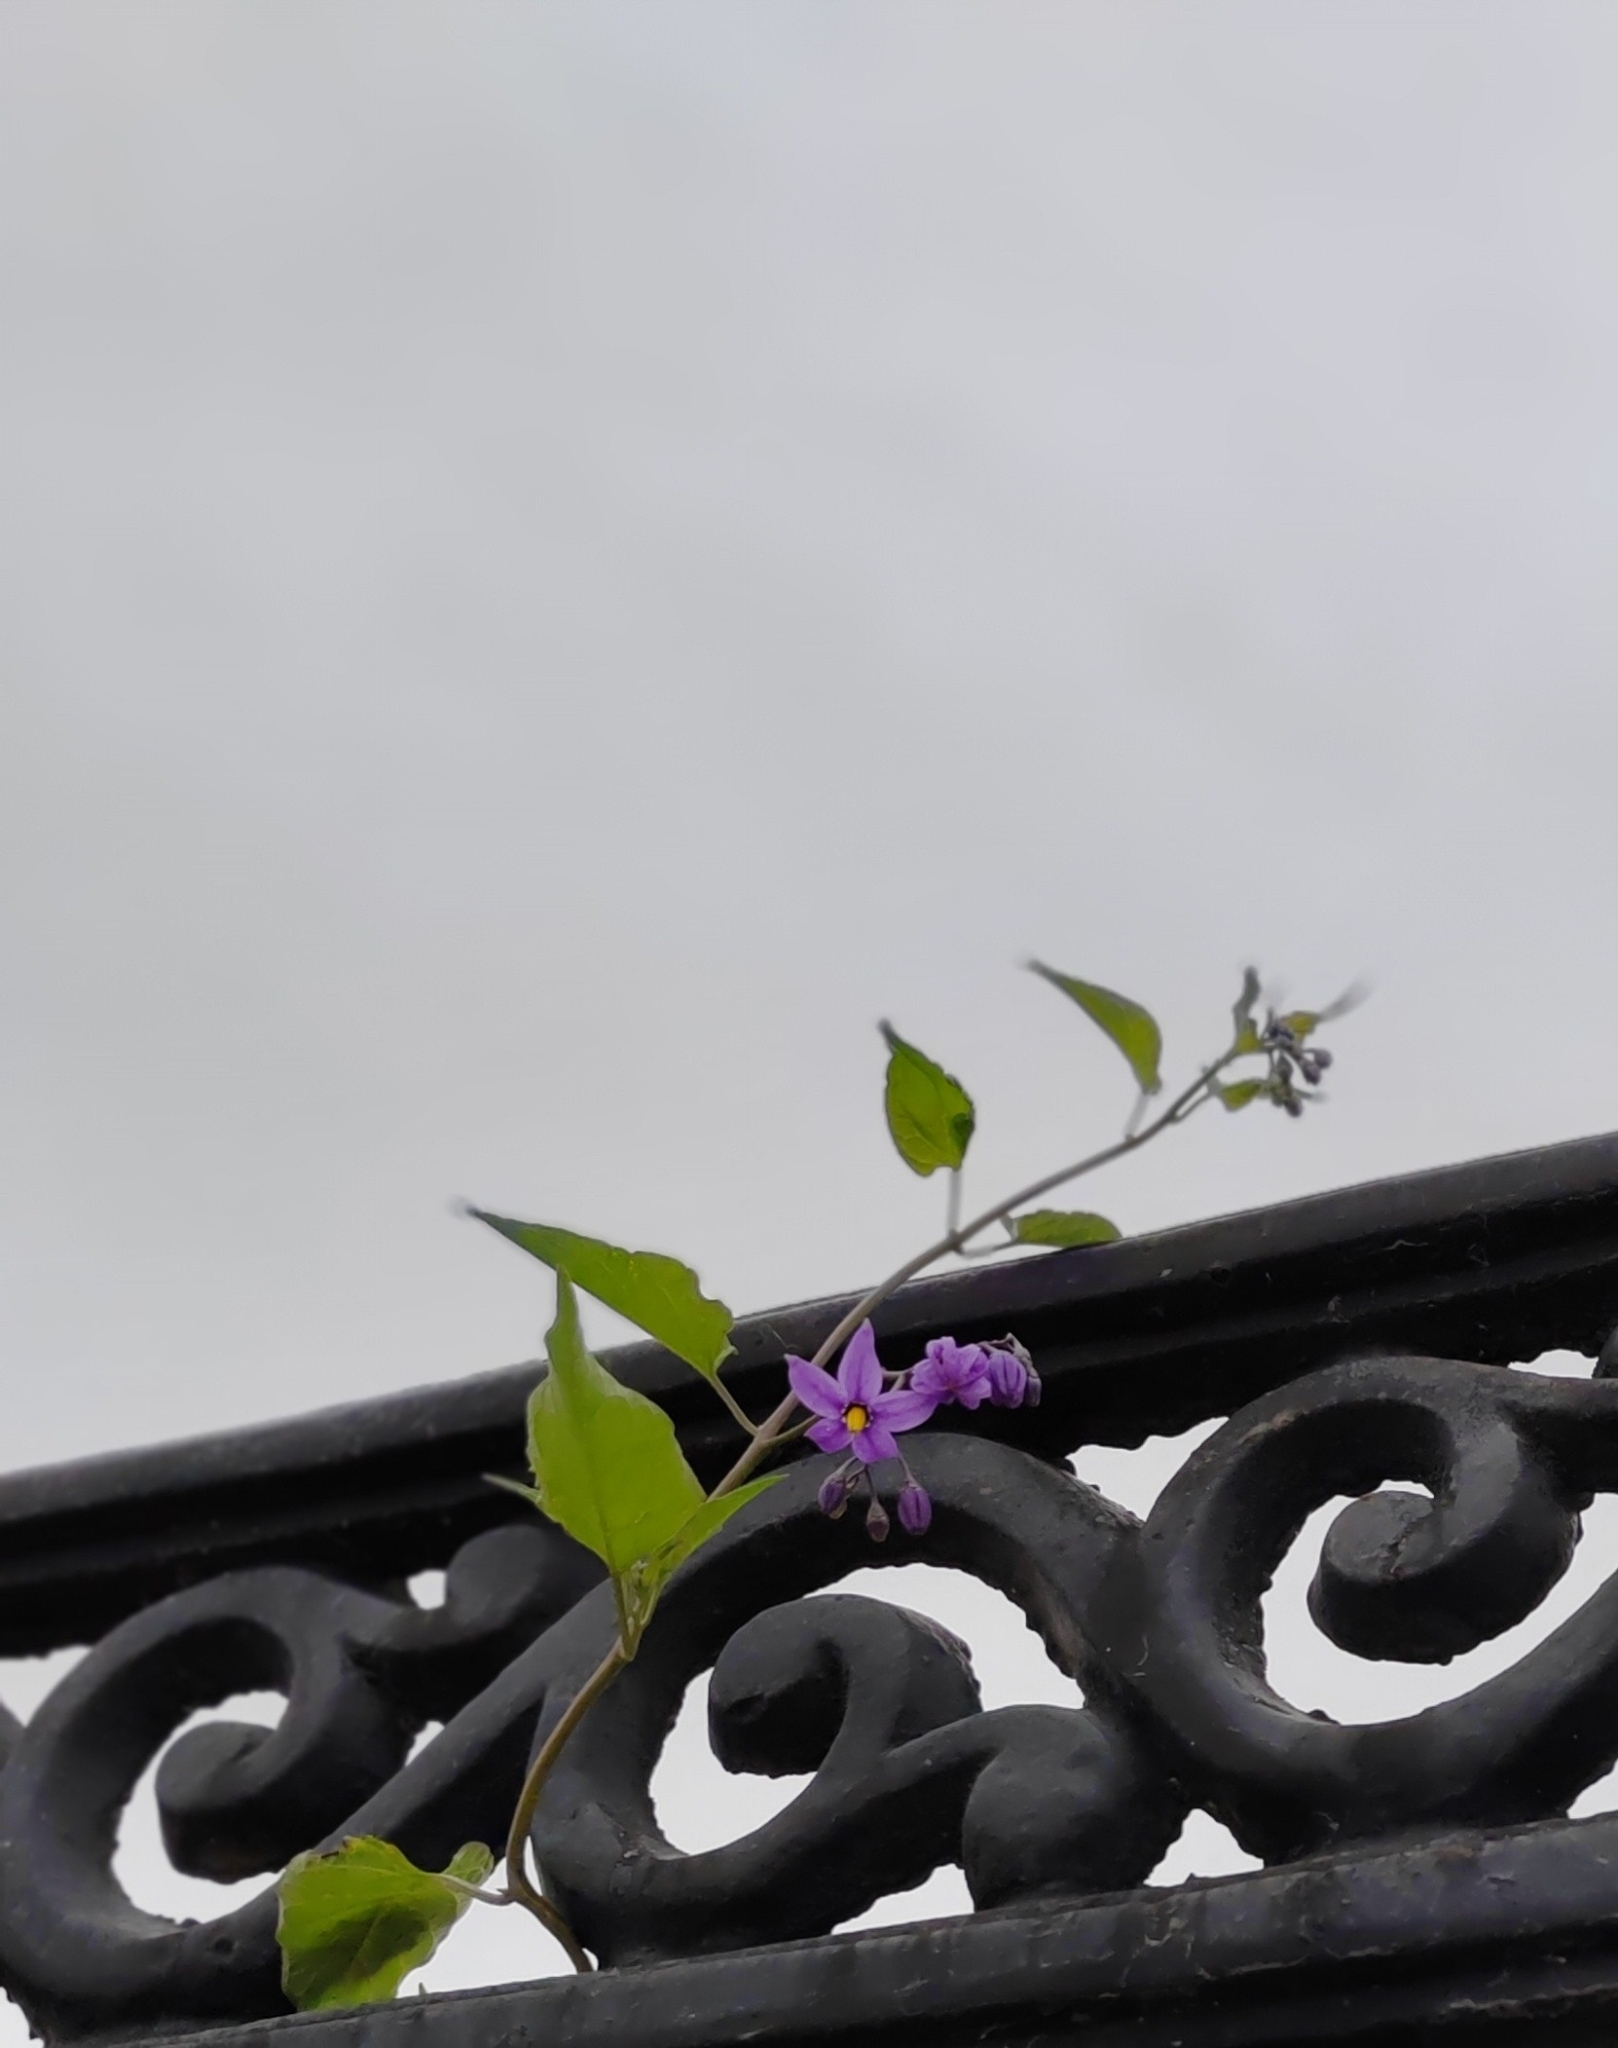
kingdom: Plantae
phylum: Tracheophyta
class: Magnoliopsida
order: Solanales
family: Solanaceae
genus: Solanum
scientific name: Solanum dulcamara
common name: Climbing nightshade
